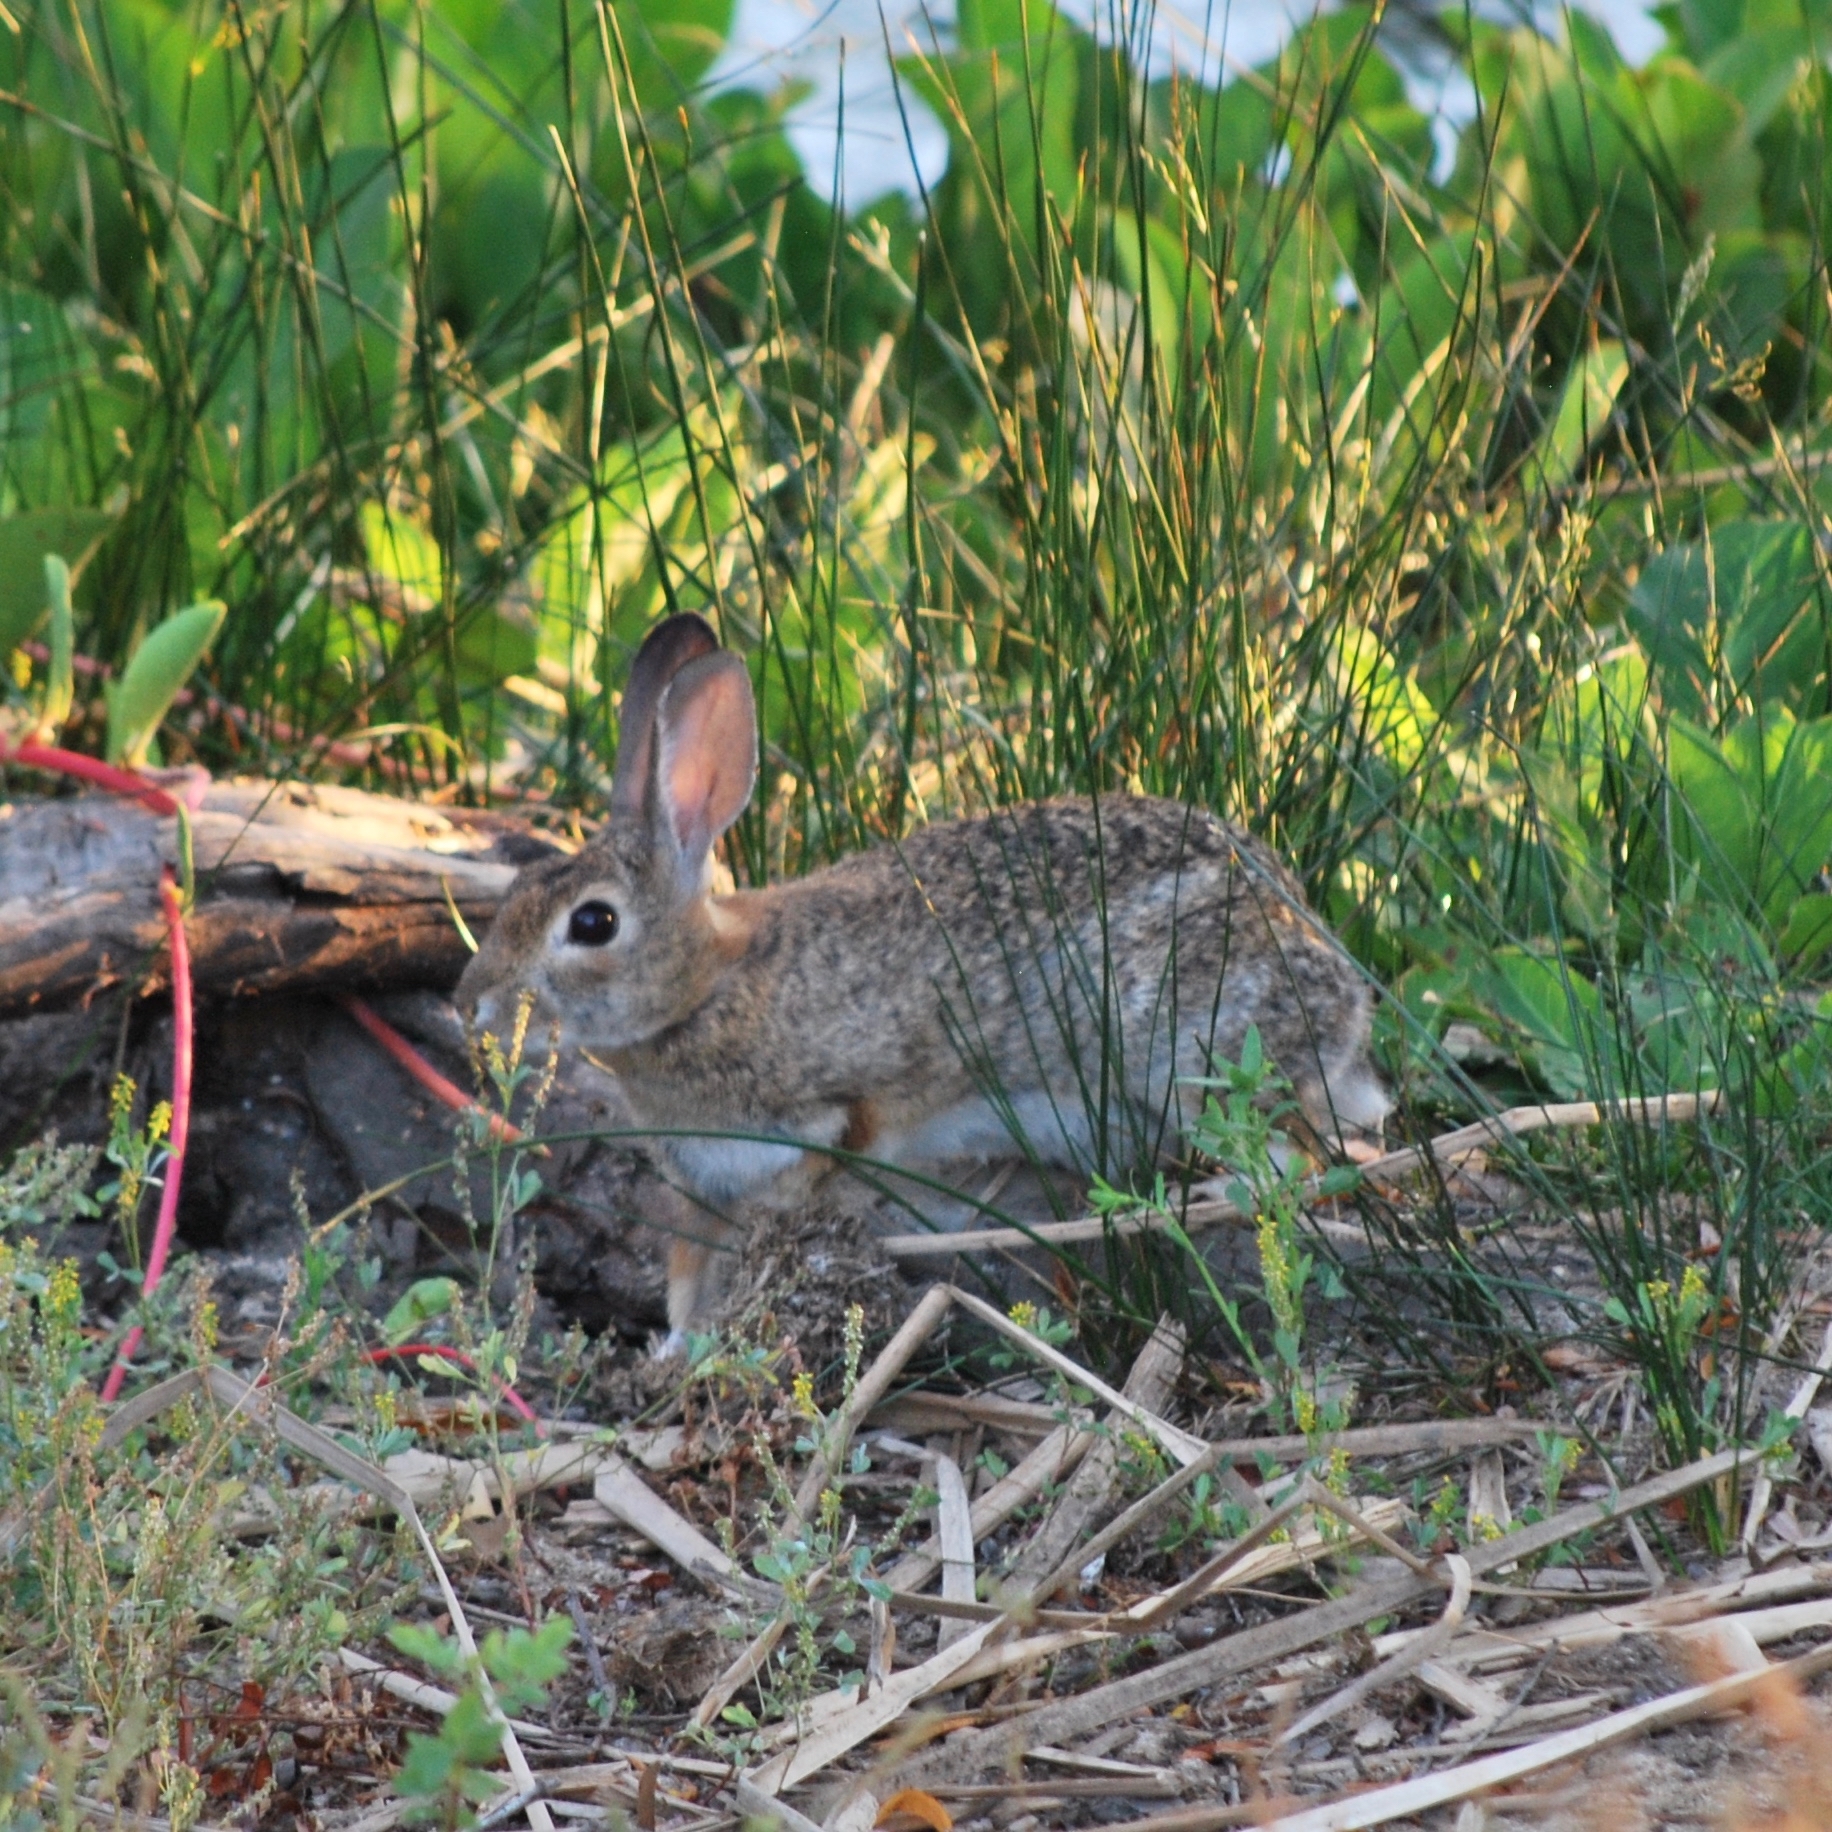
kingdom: Animalia
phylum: Chordata
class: Mammalia
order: Lagomorpha
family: Leporidae
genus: Sylvilagus
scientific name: Sylvilagus audubonii
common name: Desert cottontail
